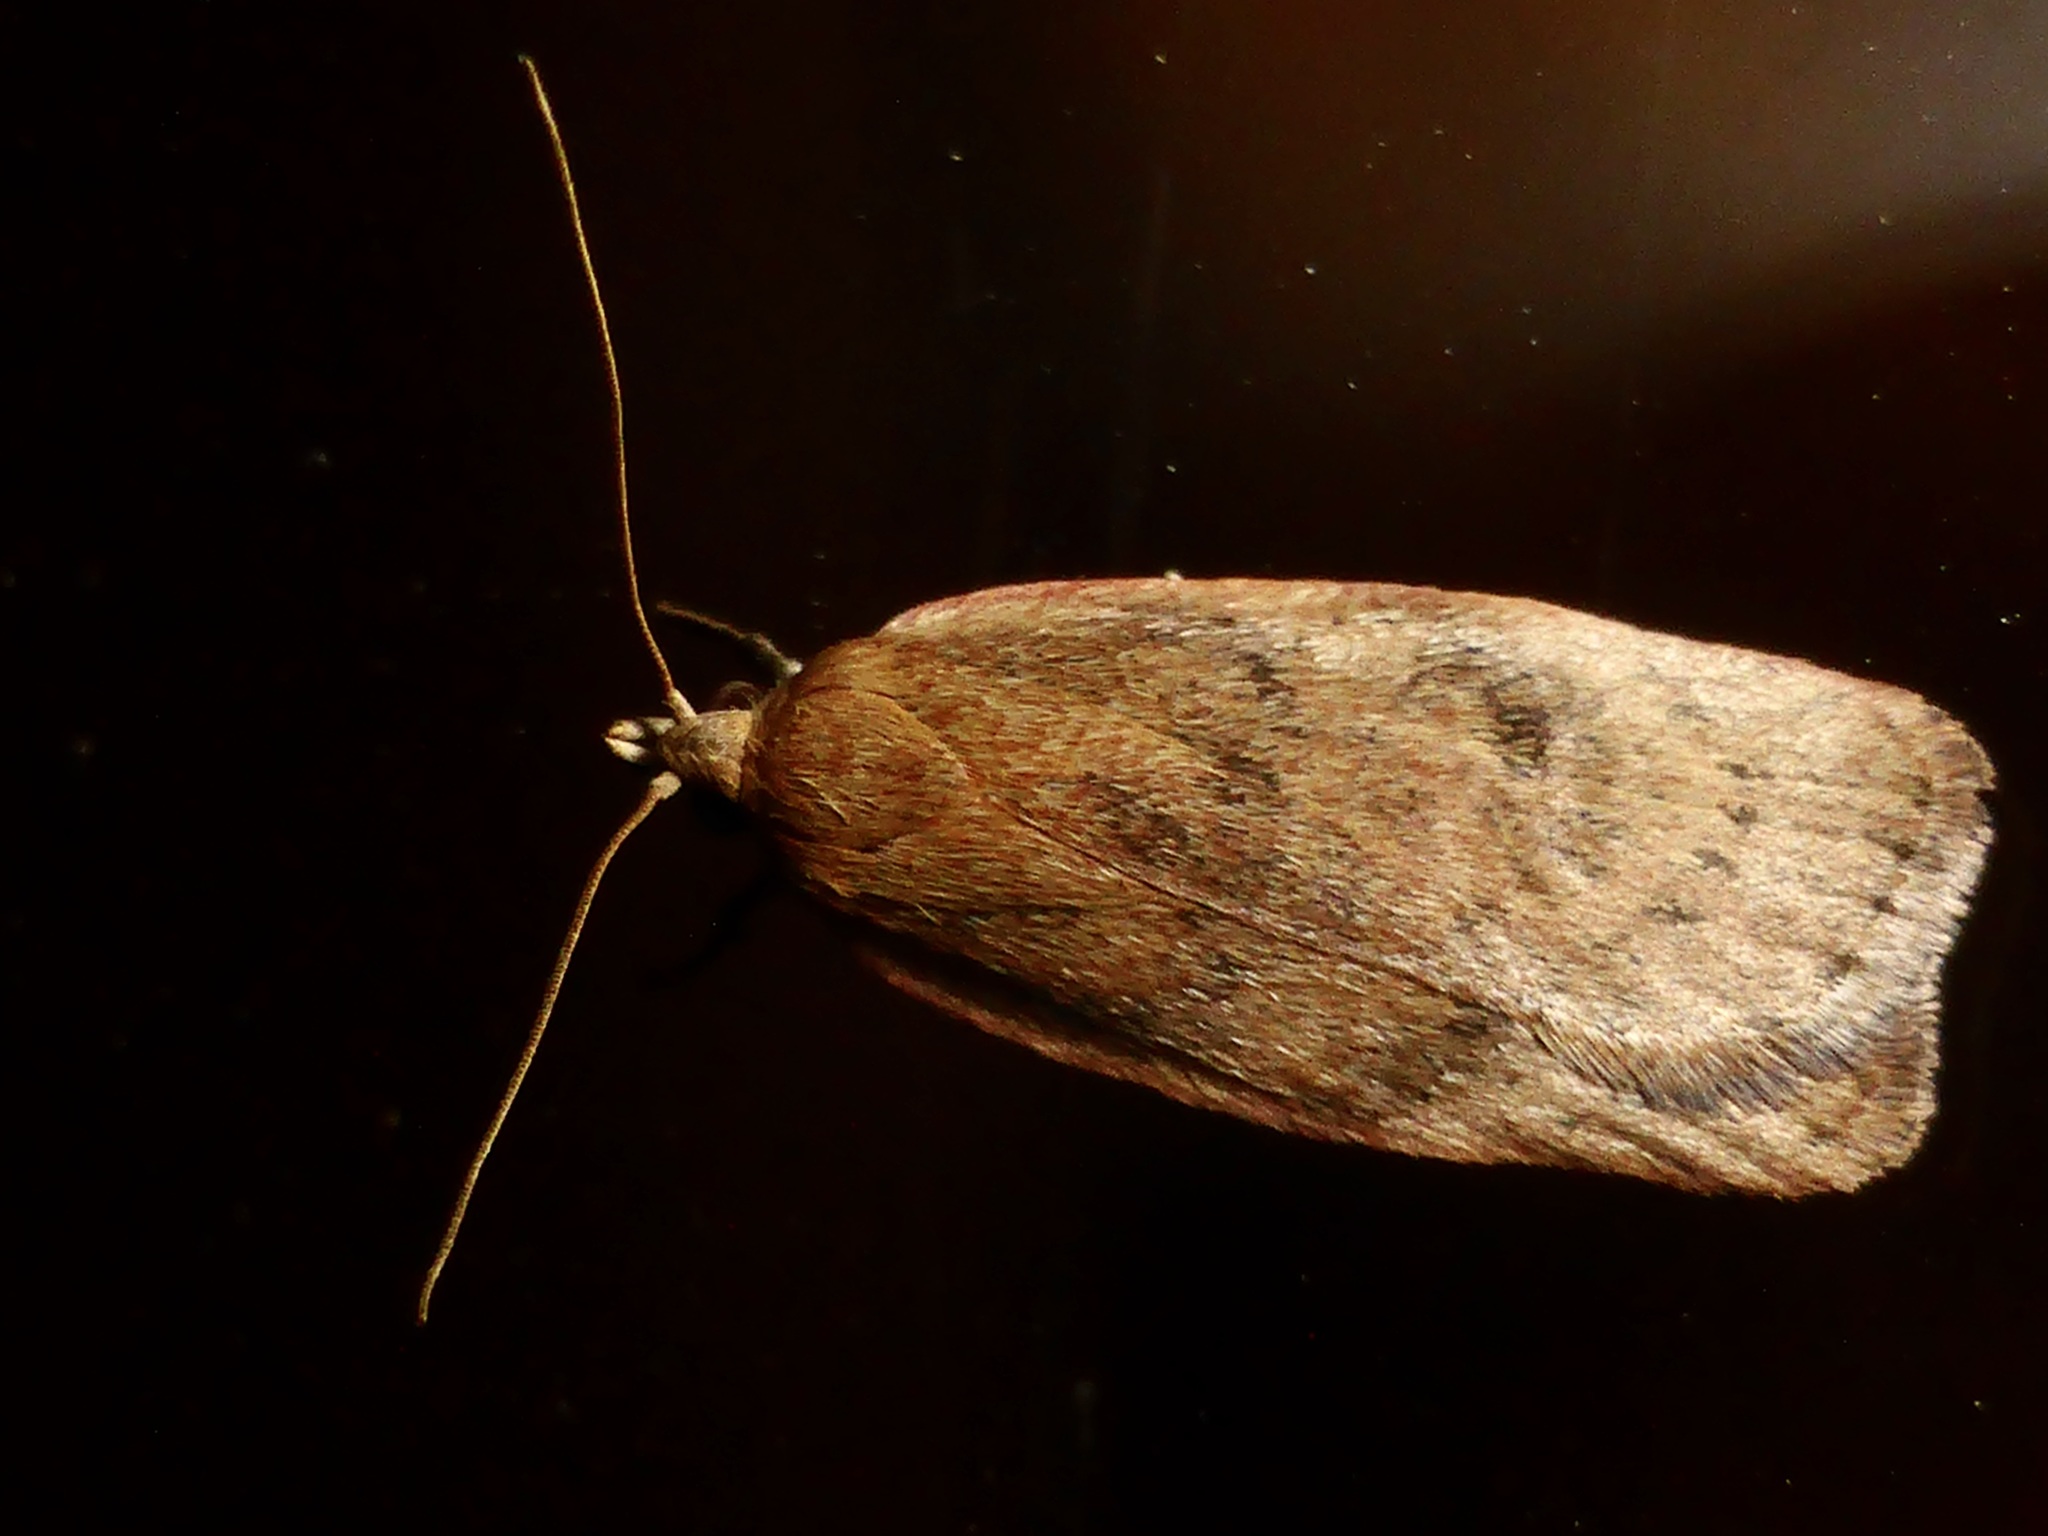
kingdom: Animalia
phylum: Arthropoda
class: Insecta
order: Lepidoptera
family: Depressariidae
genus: Phaeosaces
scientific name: Phaeosaces coarctatella
